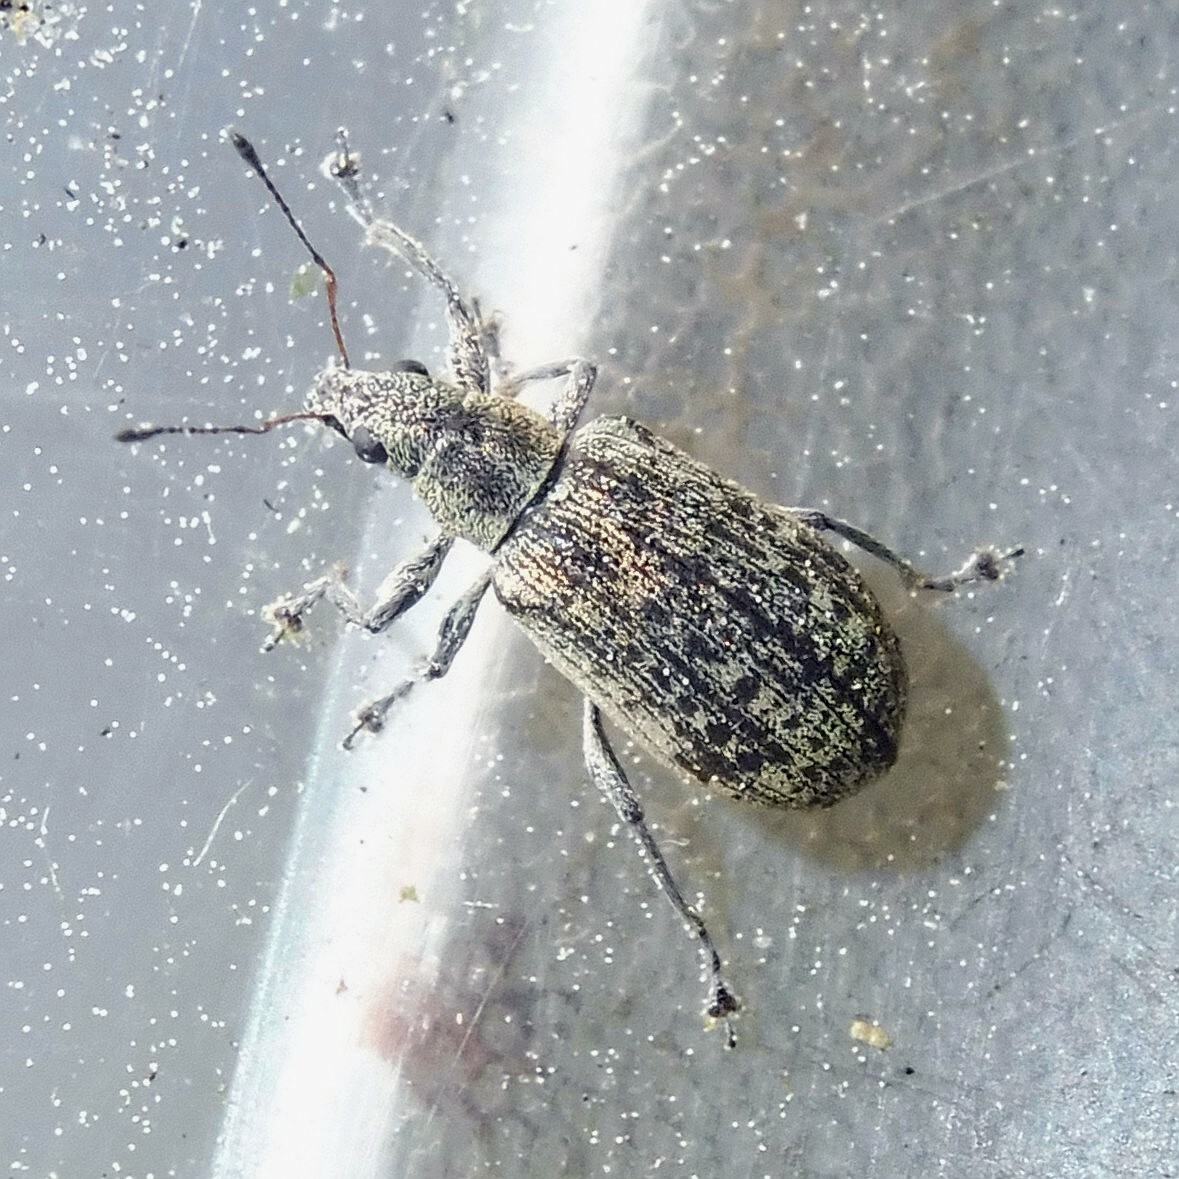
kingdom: Animalia
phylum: Arthropoda
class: Insecta
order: Coleoptera
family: Curculionidae
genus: Polydrusus
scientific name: Polydrusus cervinus
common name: Weevil
